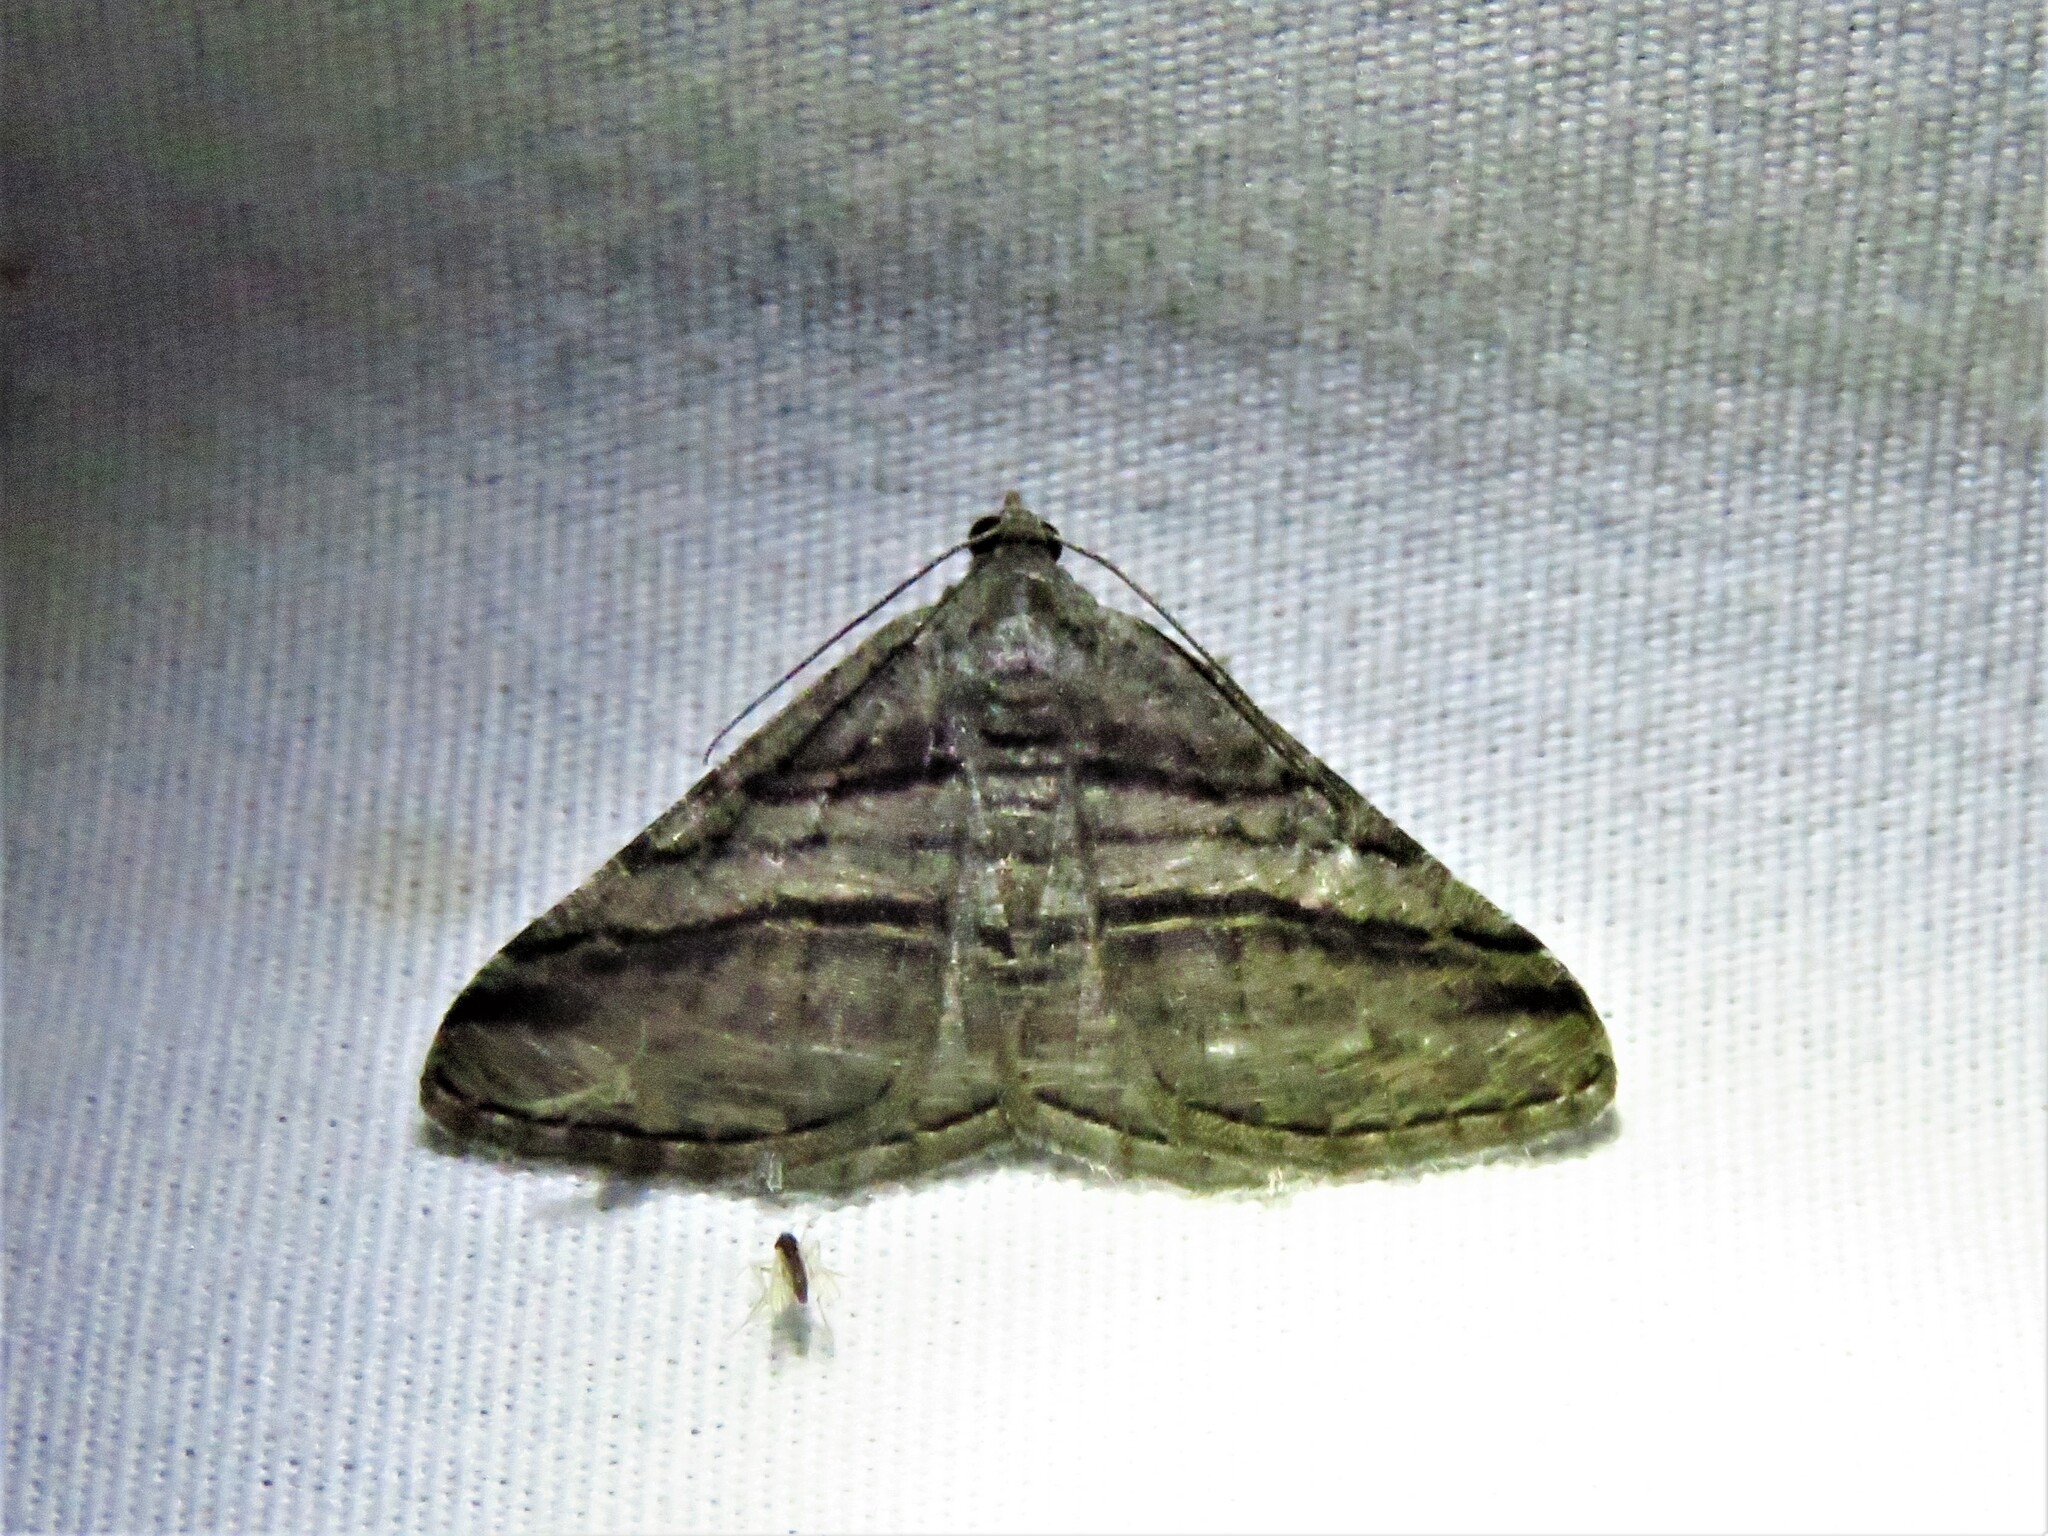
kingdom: Animalia
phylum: Arthropoda
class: Insecta
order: Lepidoptera
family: Geometridae
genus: Digrammia
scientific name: Digrammia atrofasciata
